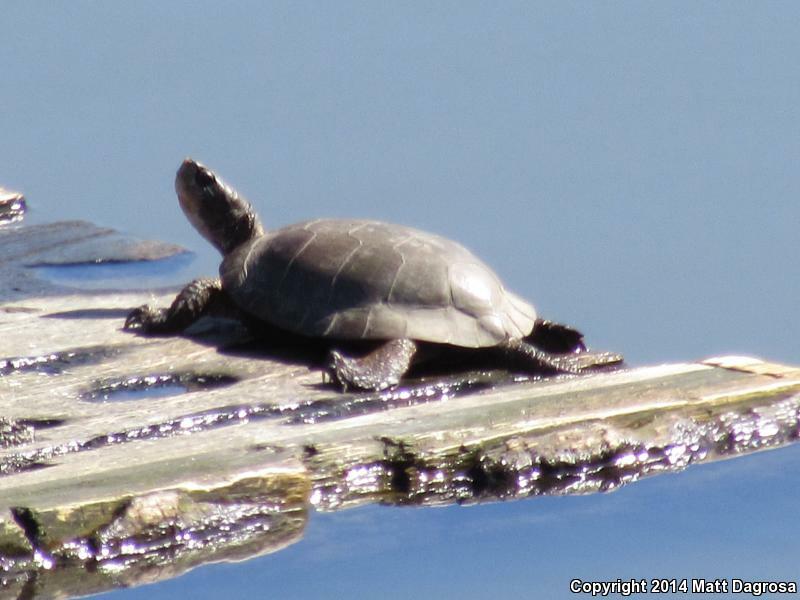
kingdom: Animalia
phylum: Chordata
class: Testudines
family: Emydidae
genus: Actinemys
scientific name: Actinemys marmorata
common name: Western pond turtle
